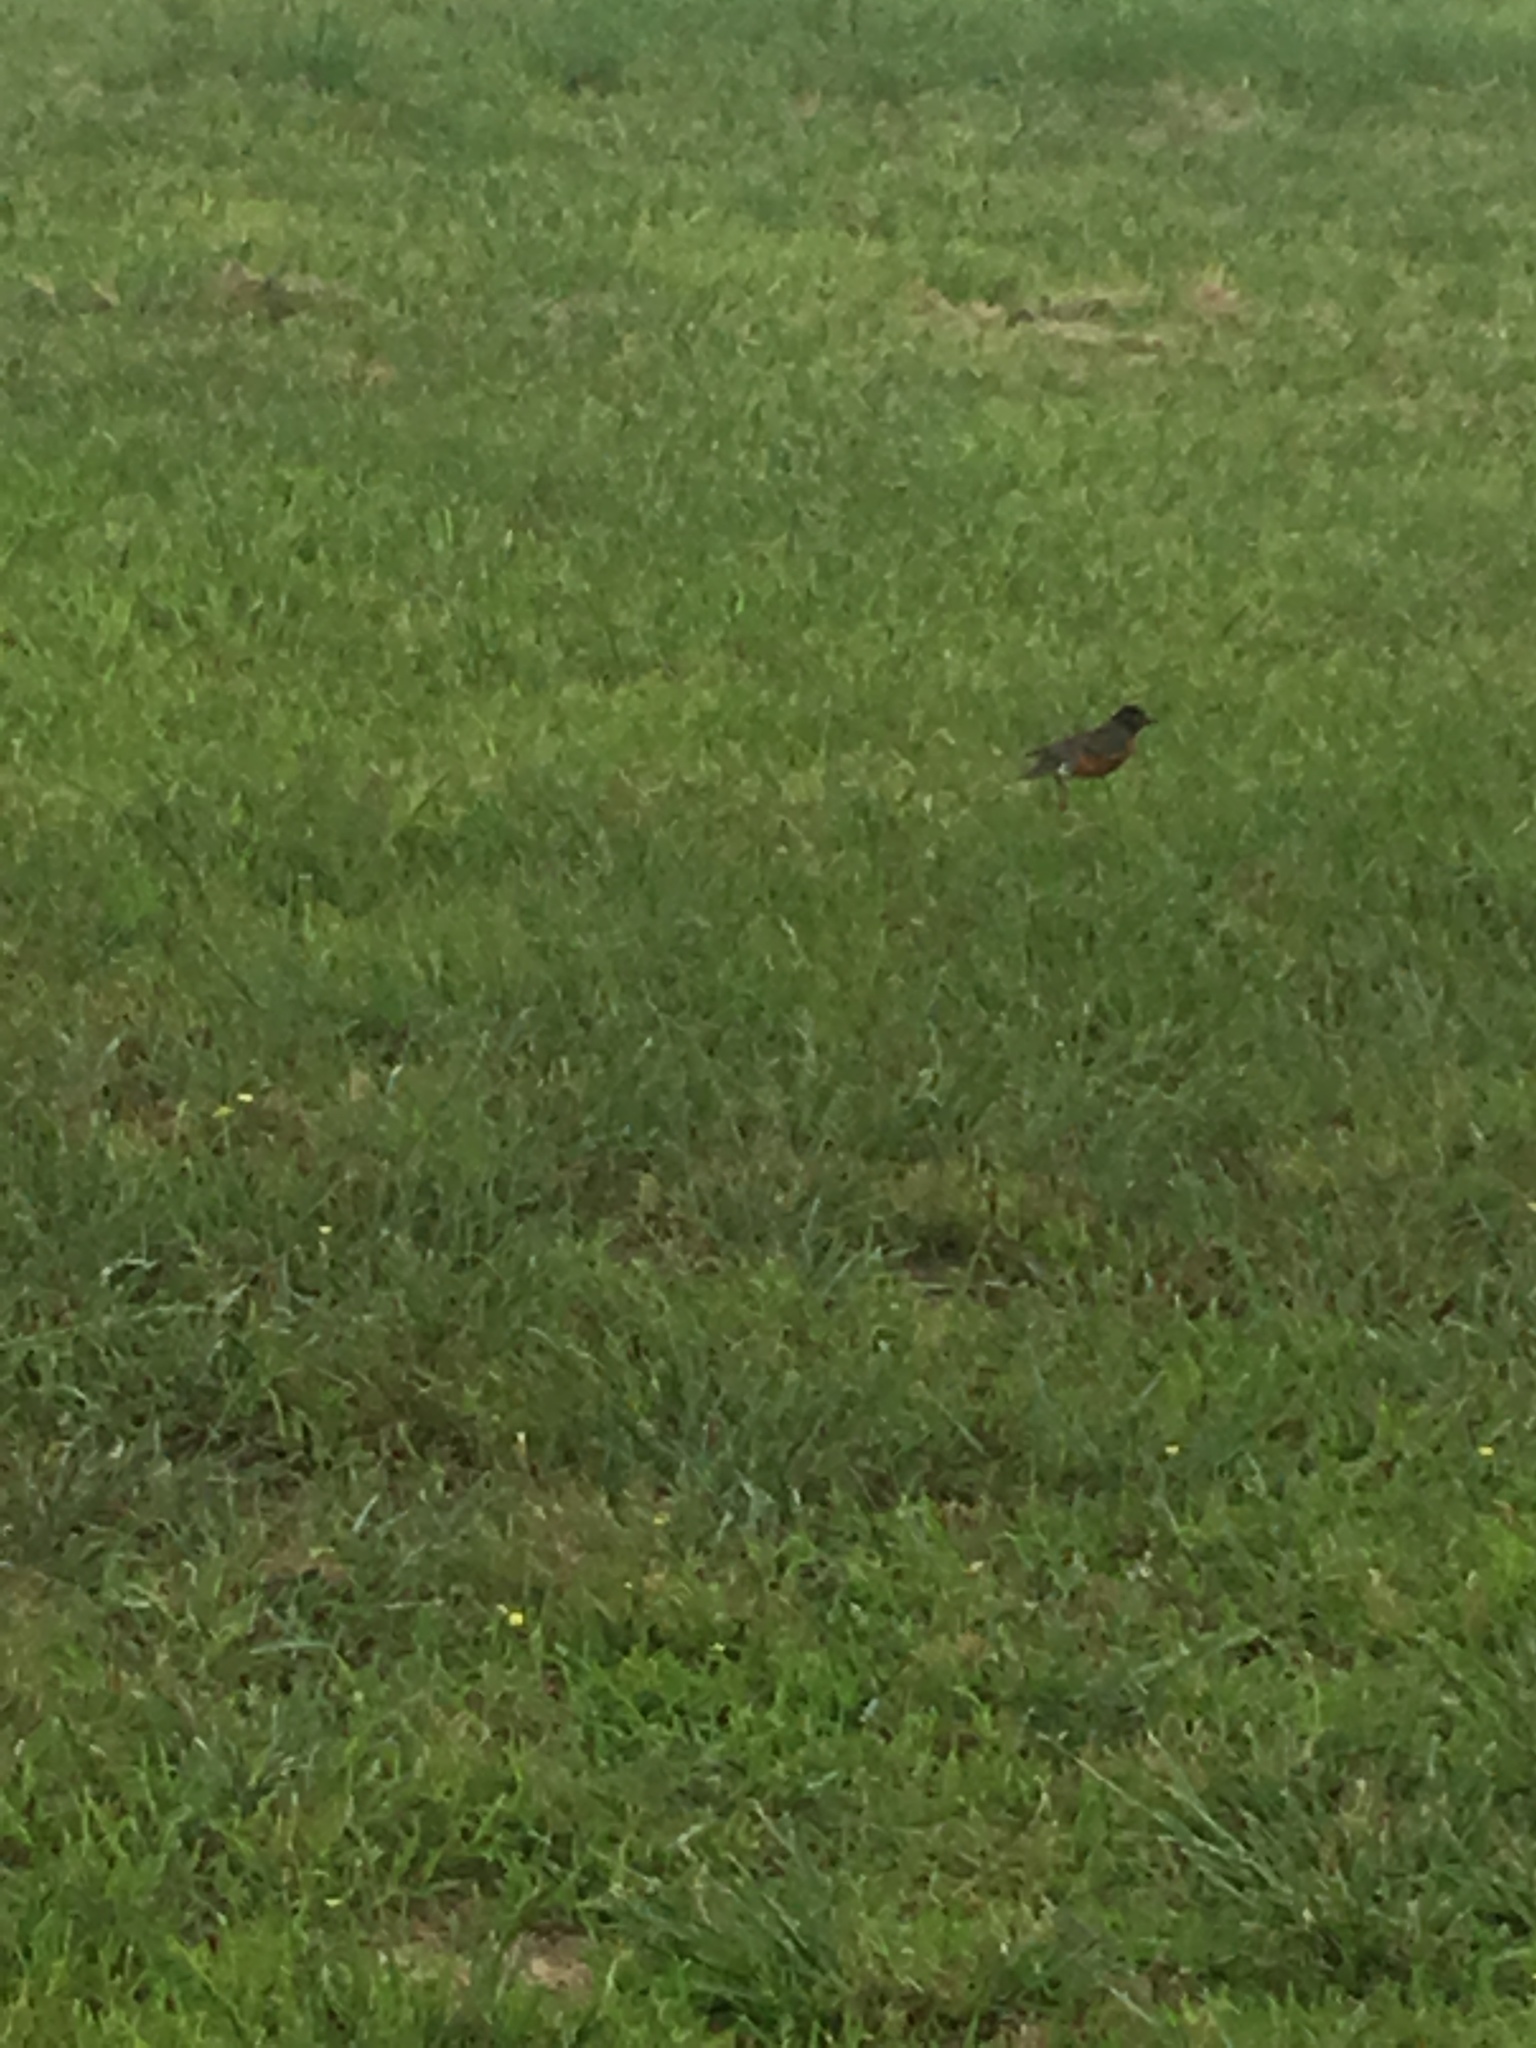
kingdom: Animalia
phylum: Chordata
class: Aves
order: Passeriformes
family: Turdidae
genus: Turdus
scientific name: Turdus migratorius
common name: American robin
